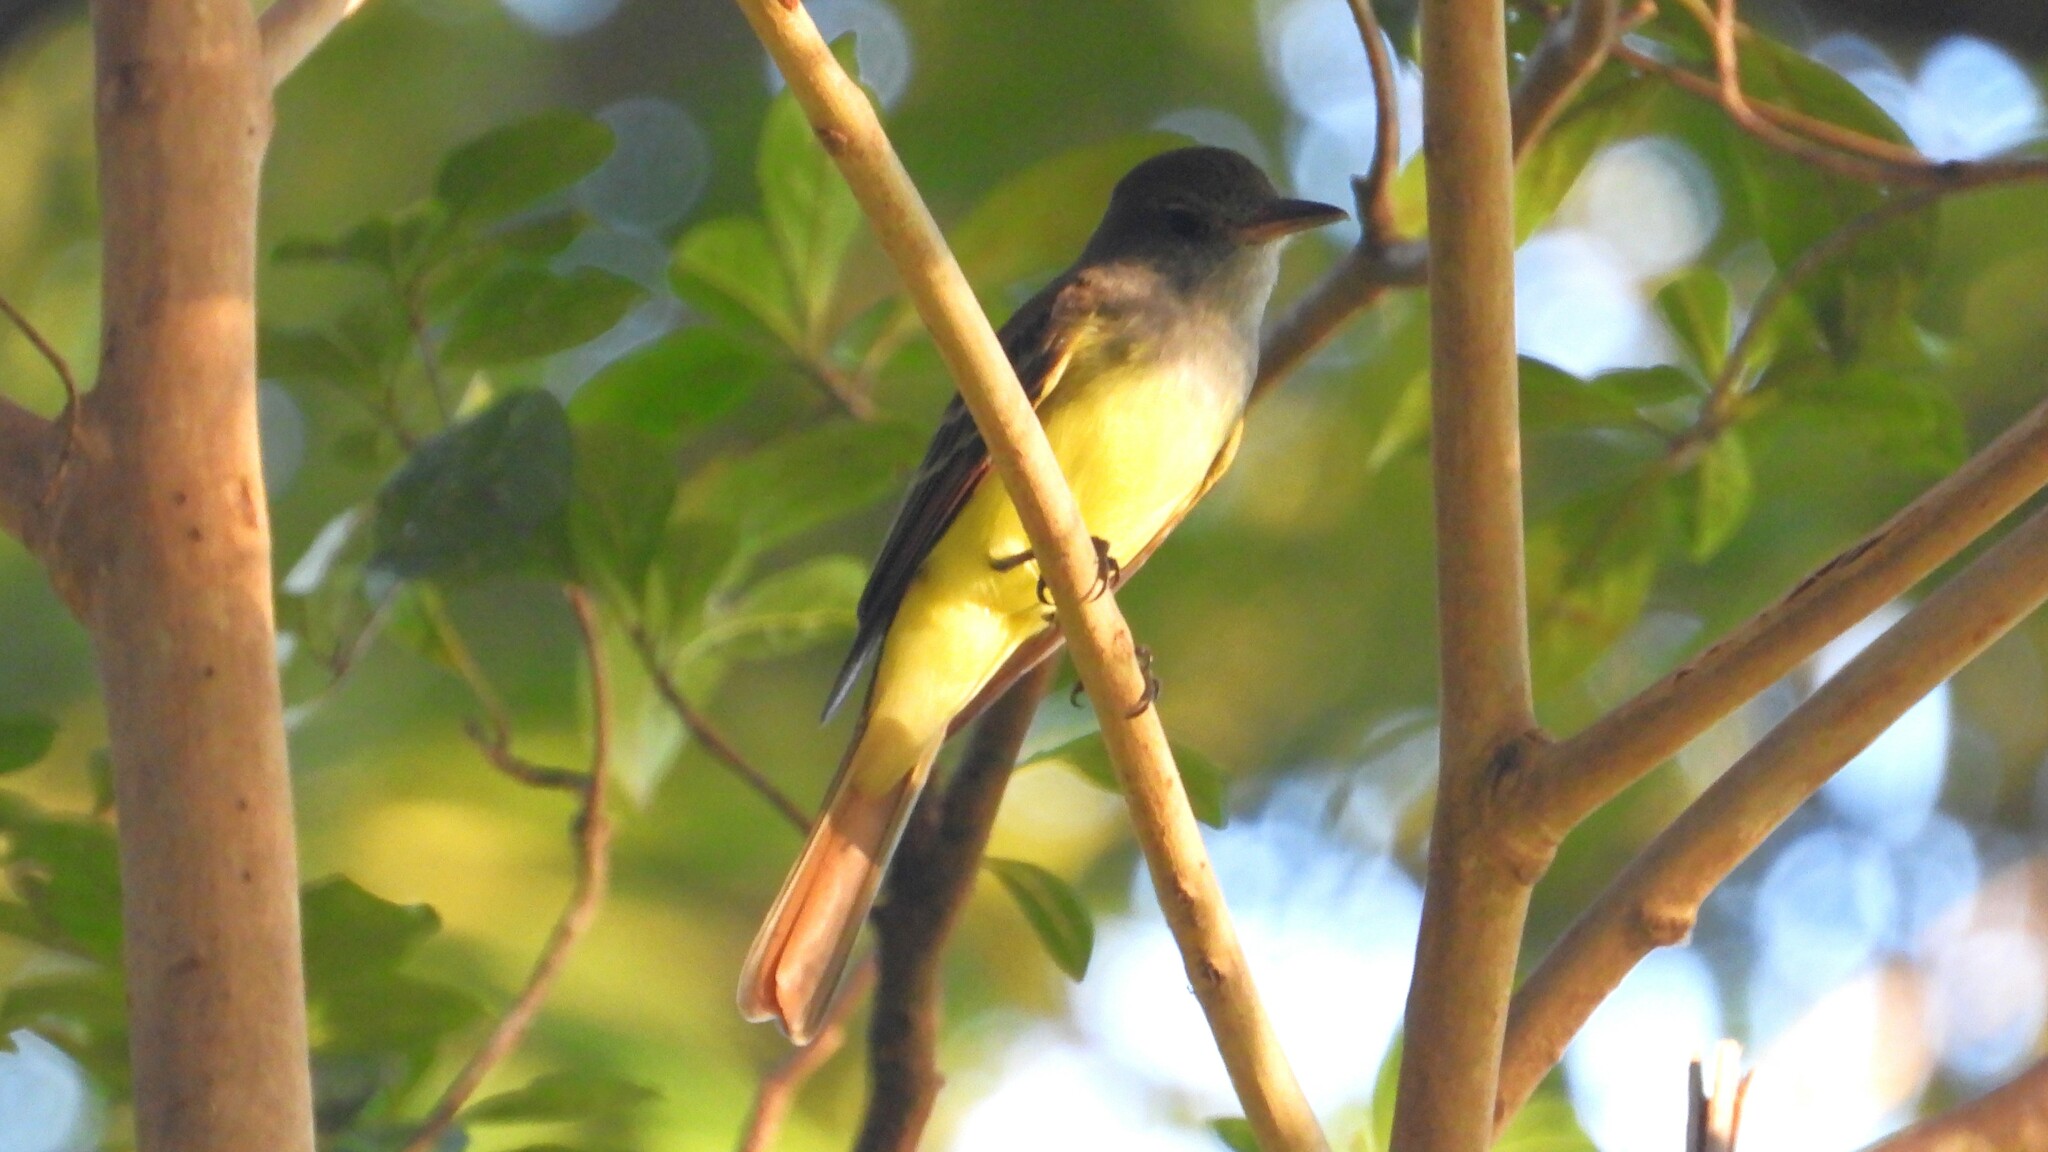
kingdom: Animalia
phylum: Chordata
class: Aves
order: Passeriformes
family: Tyrannidae
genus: Myiarchus
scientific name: Myiarchus crinitus
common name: Great crested flycatcher
